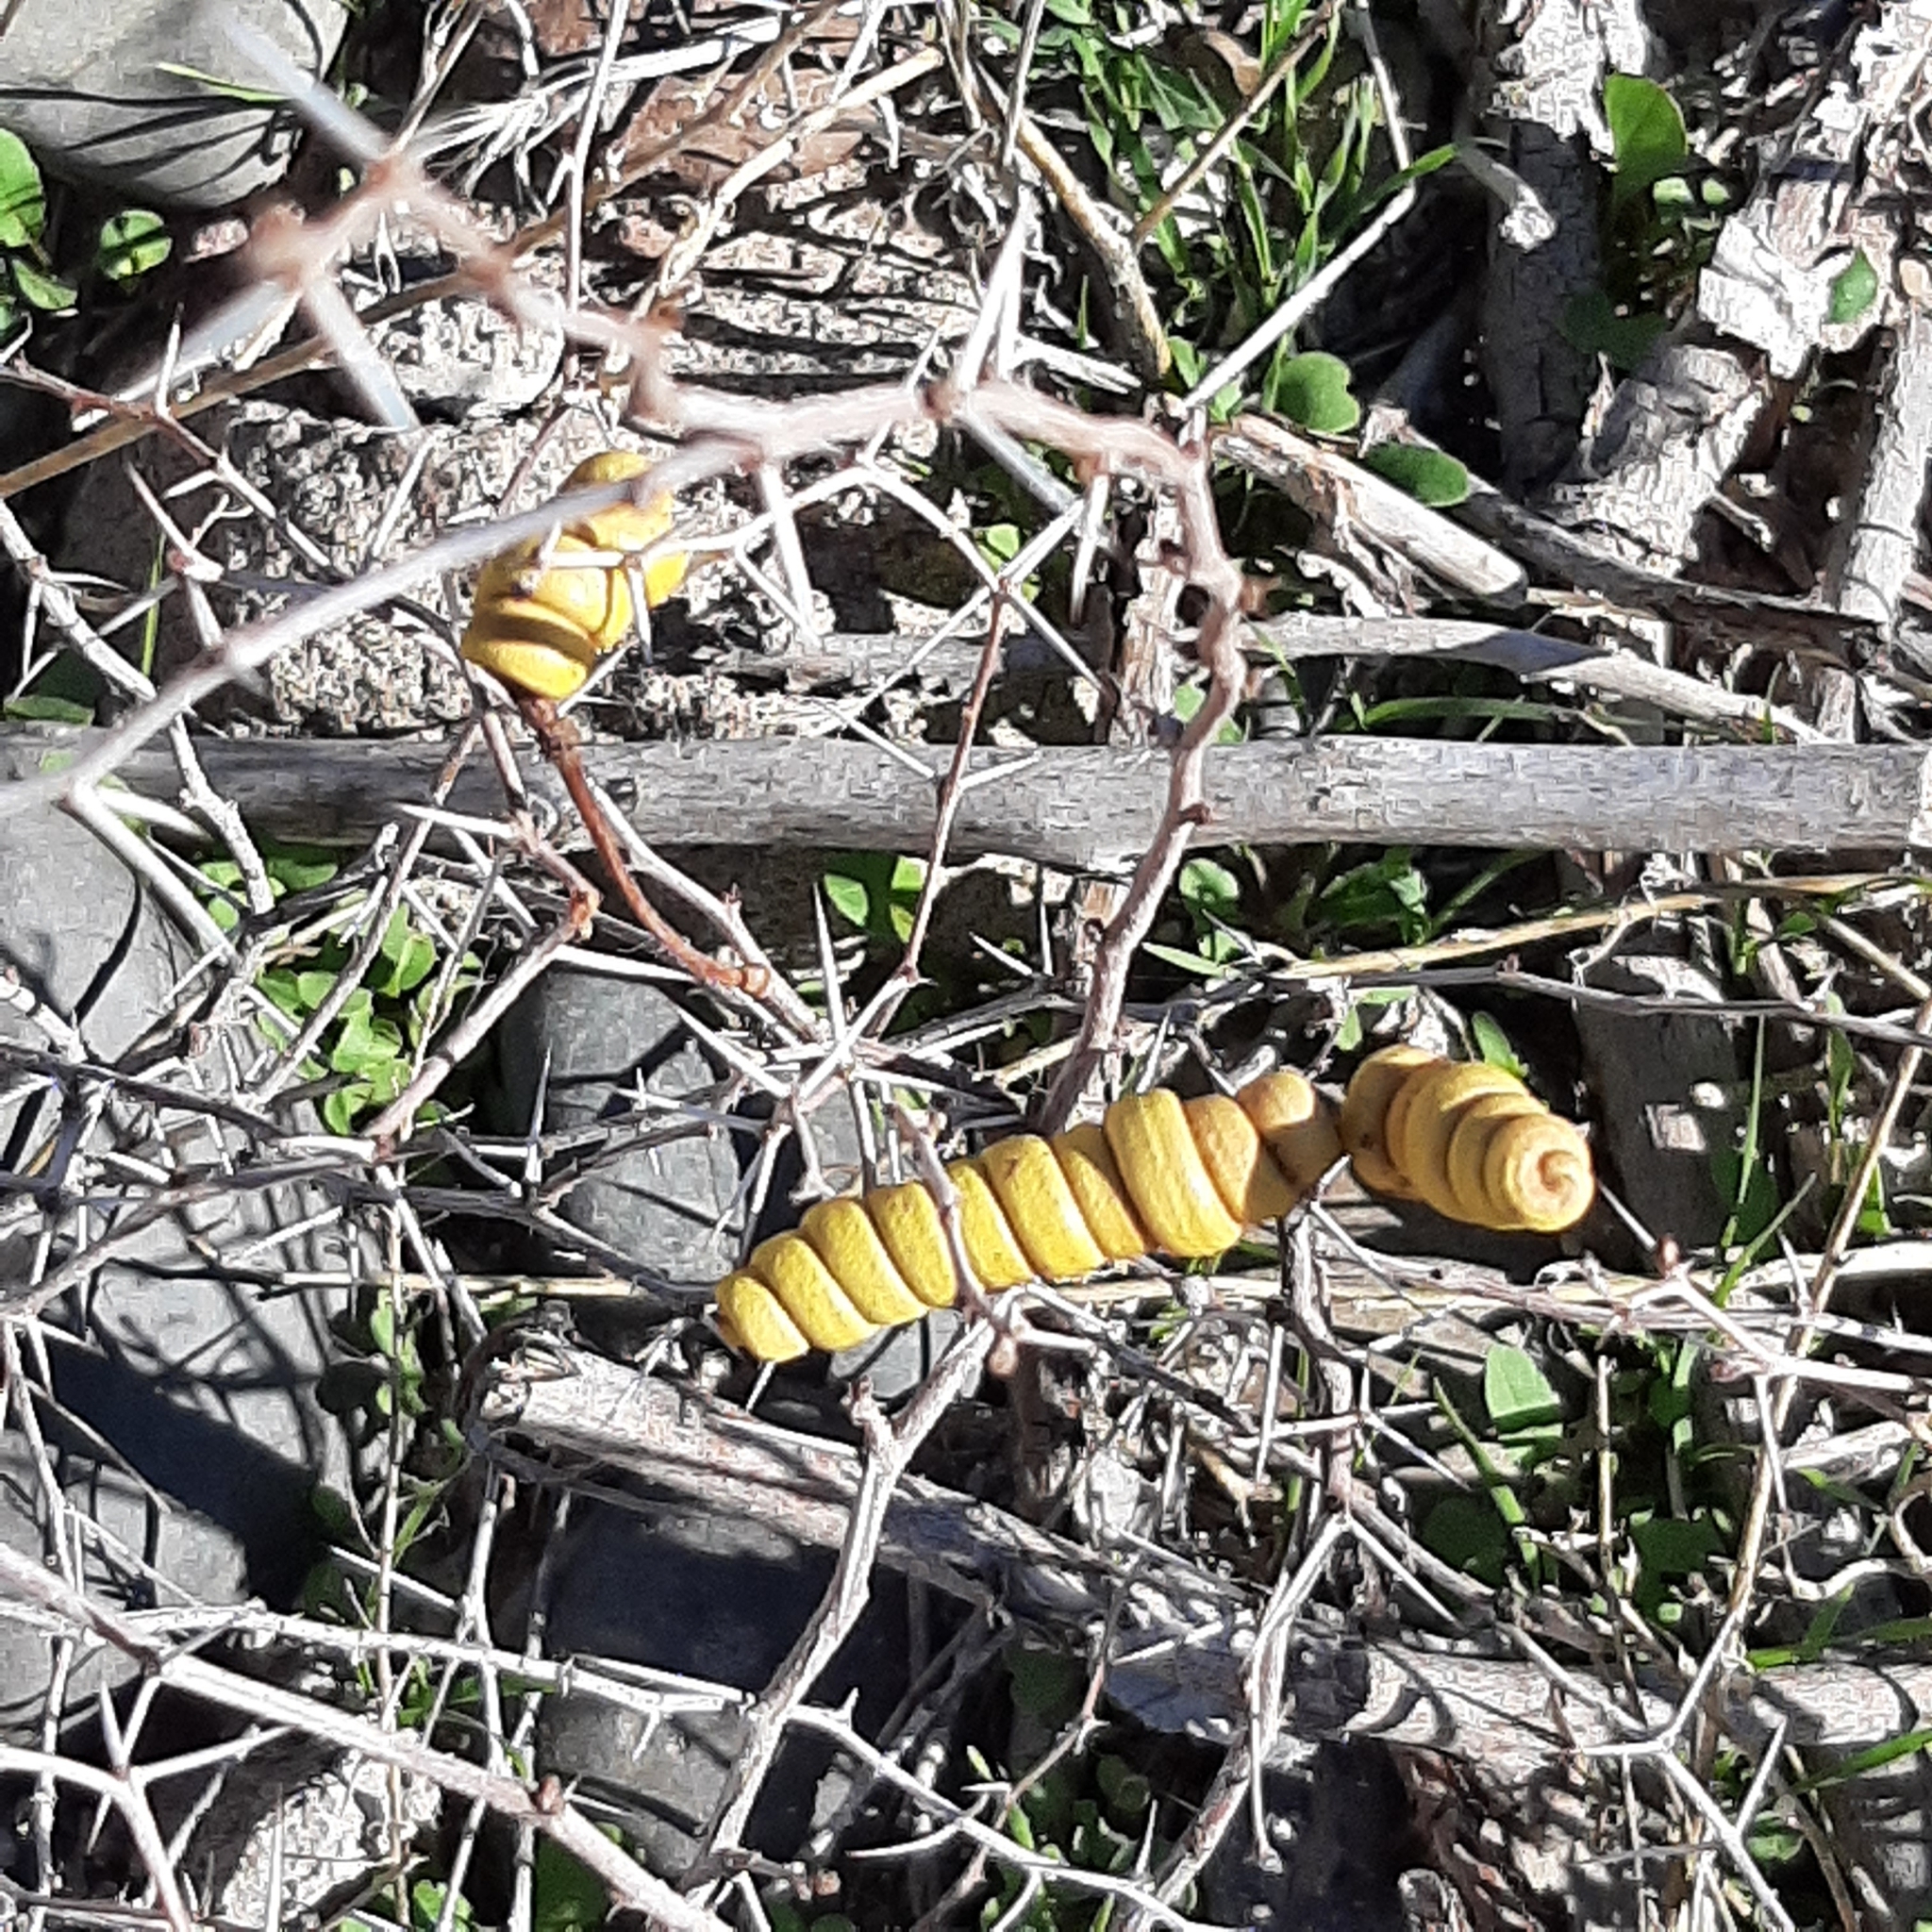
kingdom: Plantae
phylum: Tracheophyta
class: Magnoliopsida
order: Fabales
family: Fabaceae
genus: Prosopis
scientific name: Prosopis strombulifera
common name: Creeping mesquite
